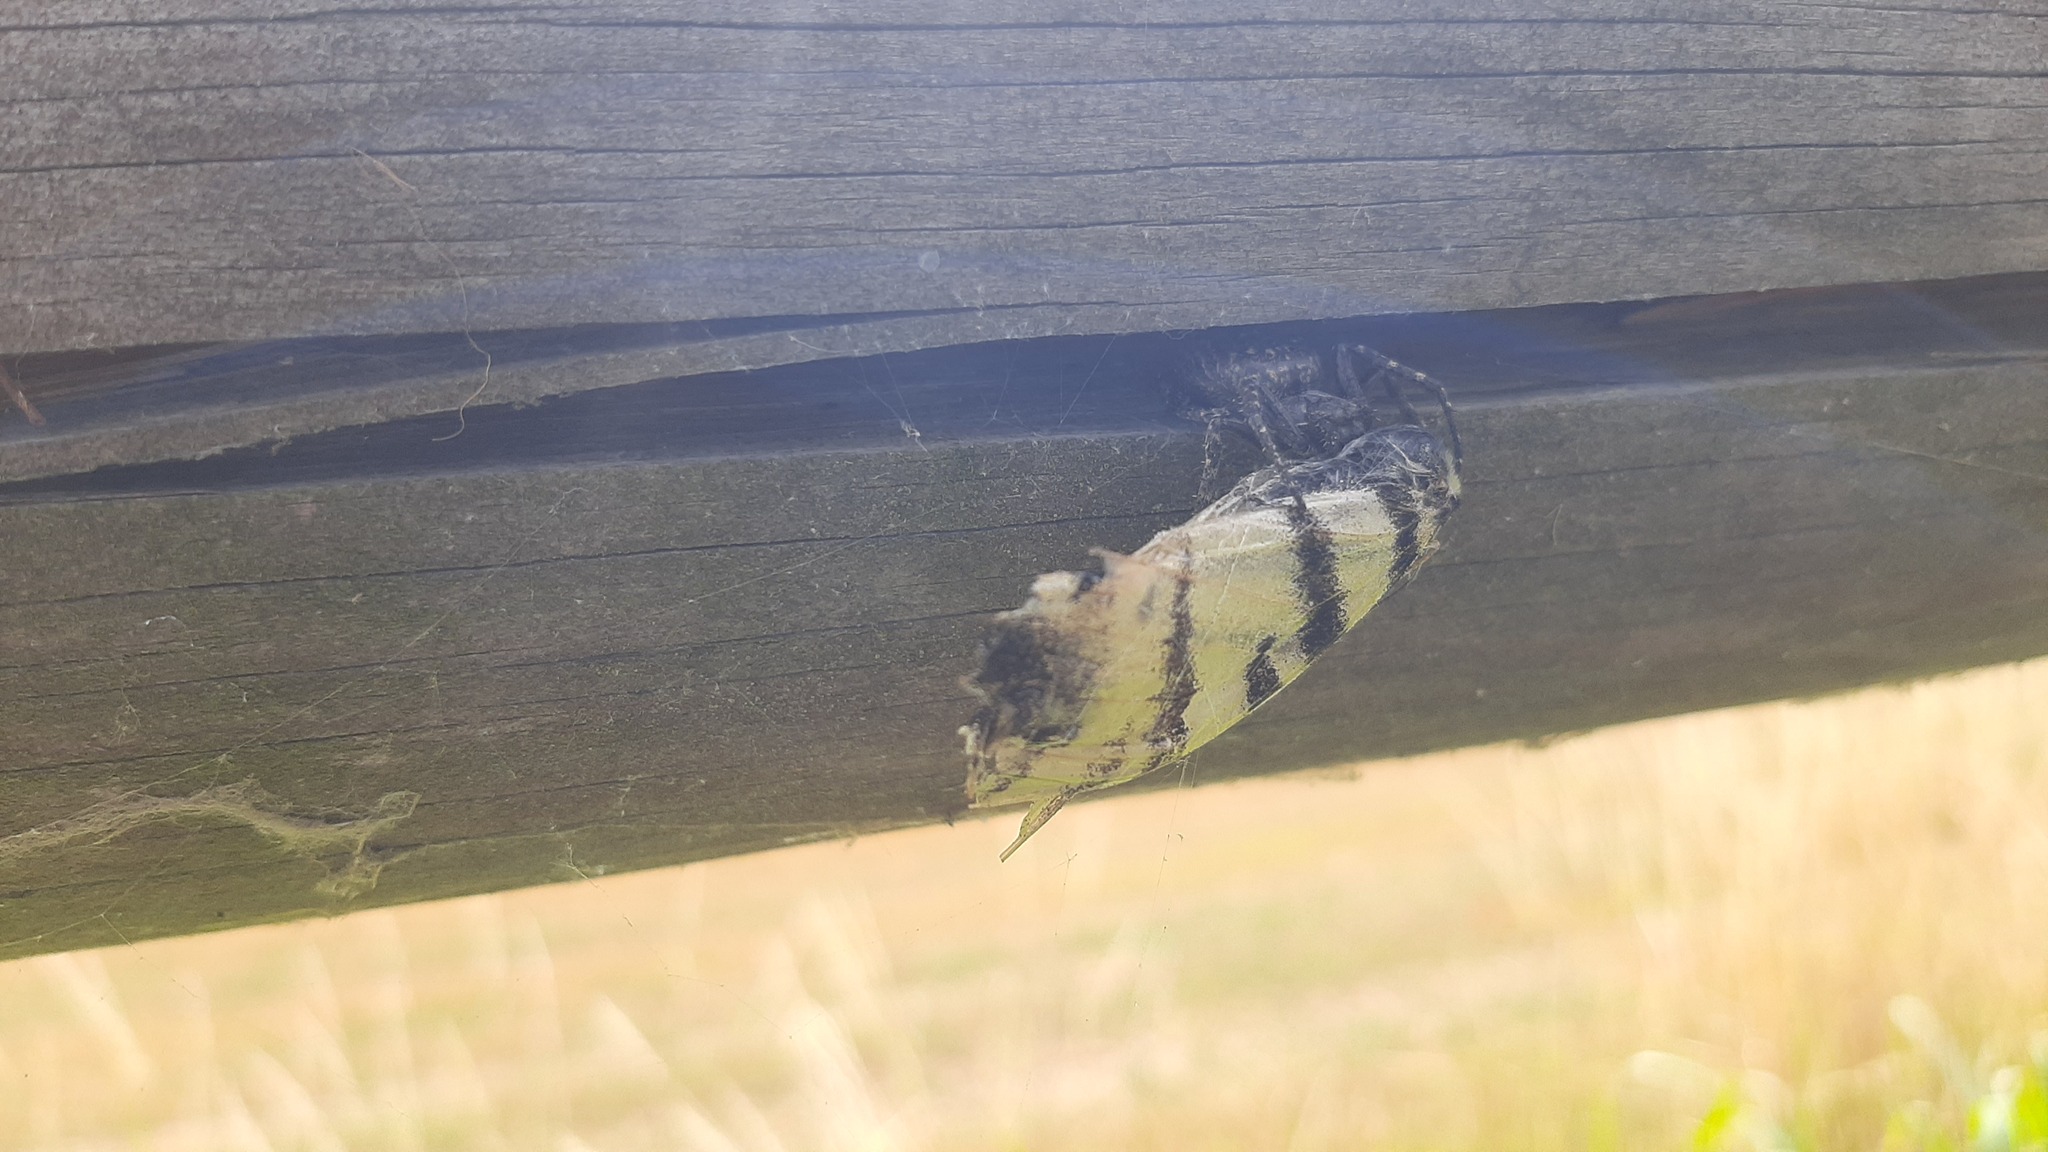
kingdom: Animalia
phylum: Arthropoda
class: Insecta
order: Lepidoptera
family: Papilionidae
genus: Iphiclides
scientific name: Iphiclides podalirius
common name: Scarce swallowtail
